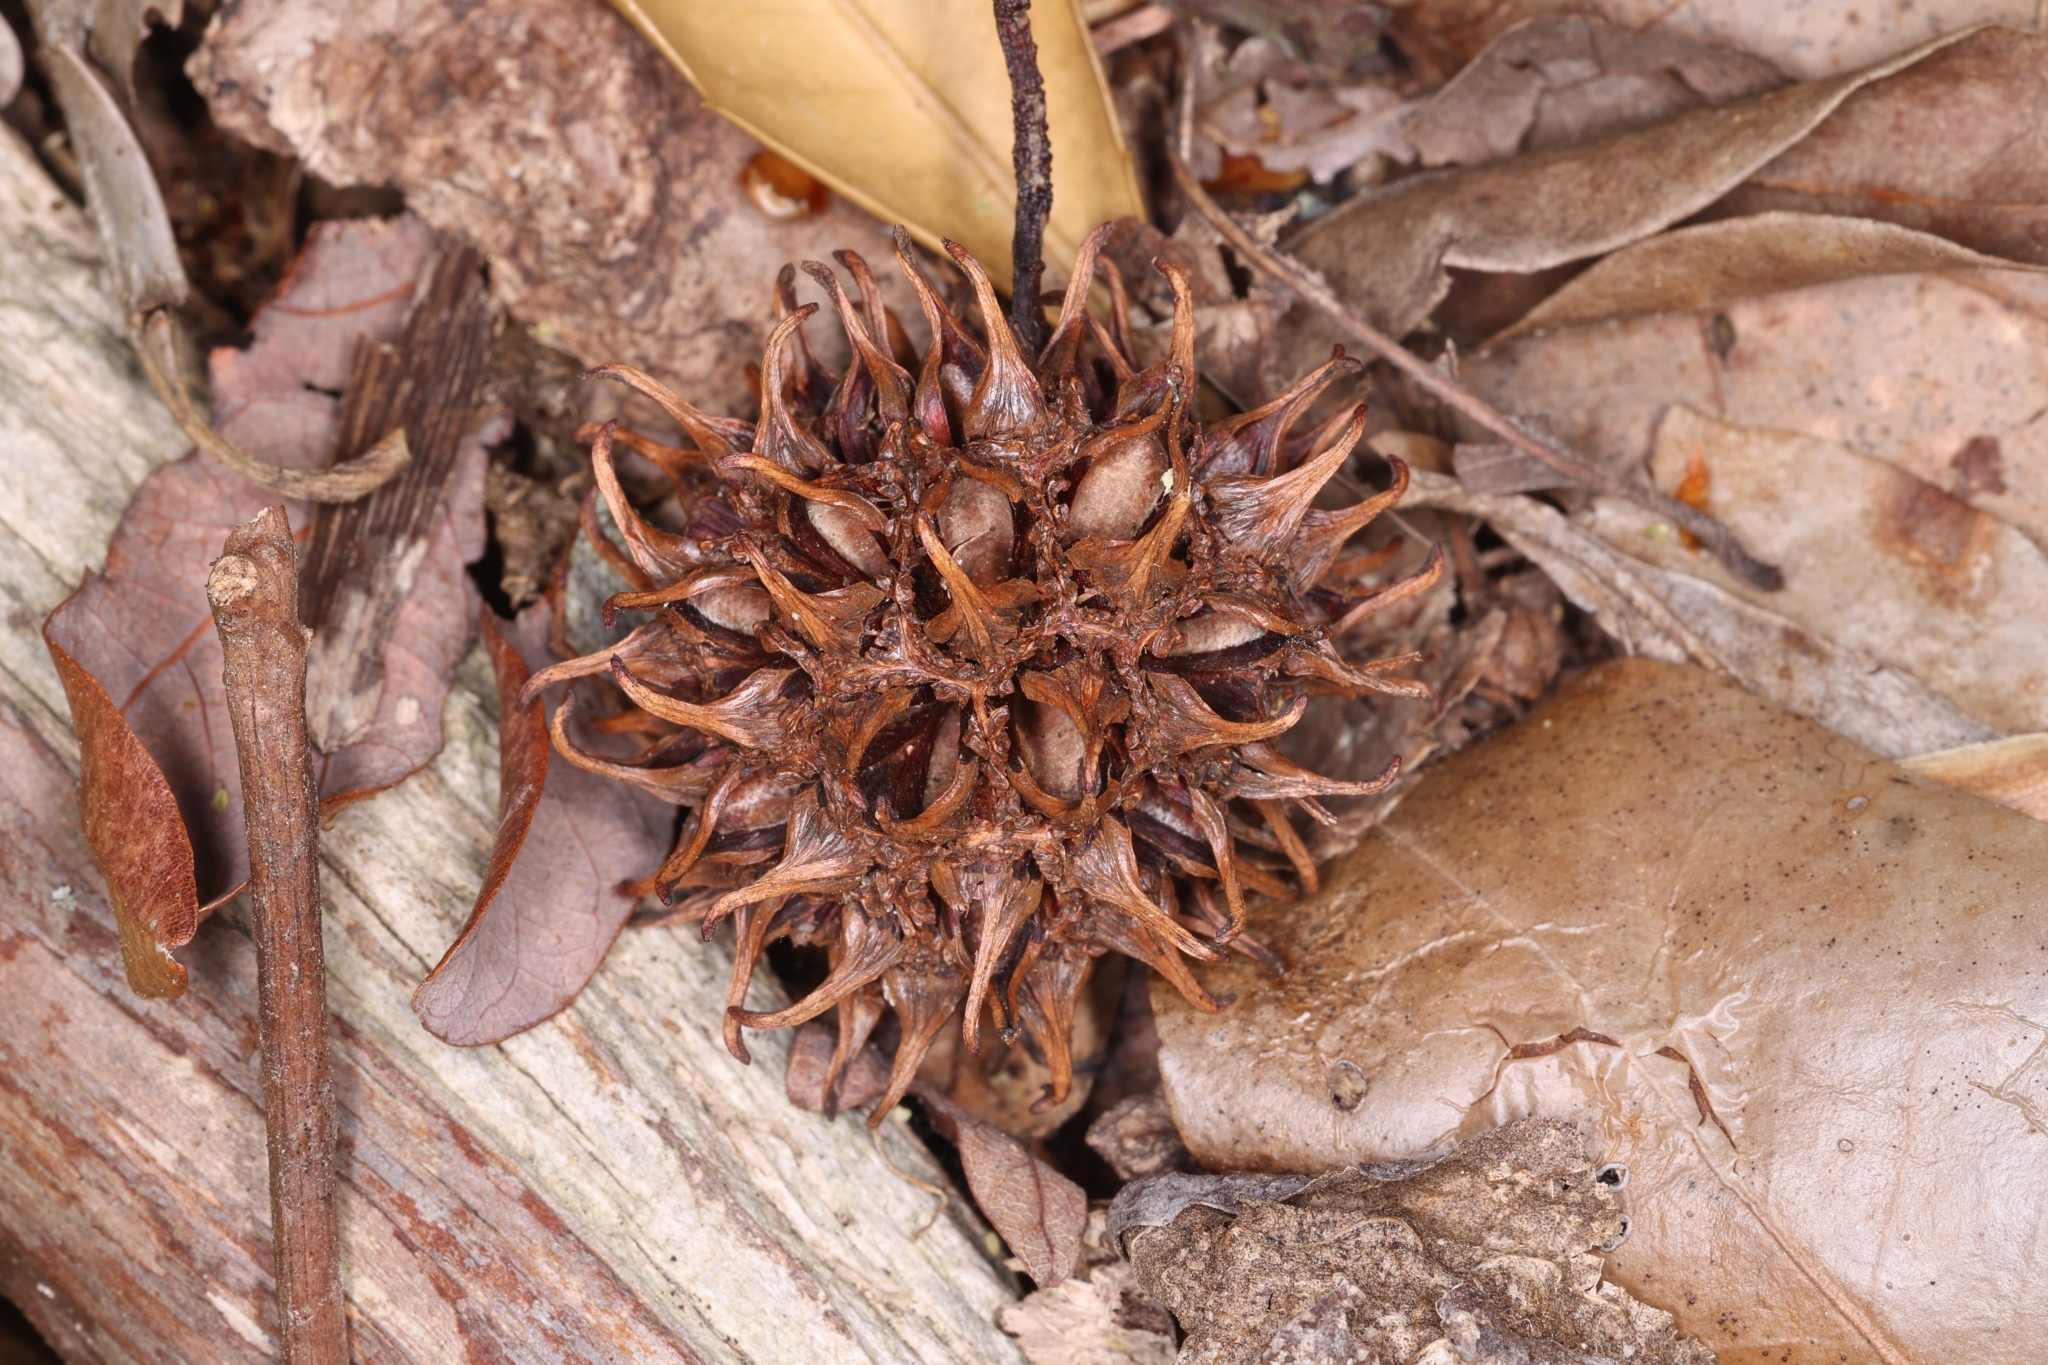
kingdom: Plantae
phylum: Tracheophyta
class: Magnoliopsida
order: Saxifragales
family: Altingiaceae
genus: Liquidambar
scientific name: Liquidambar styraciflua
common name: Sweet gum
